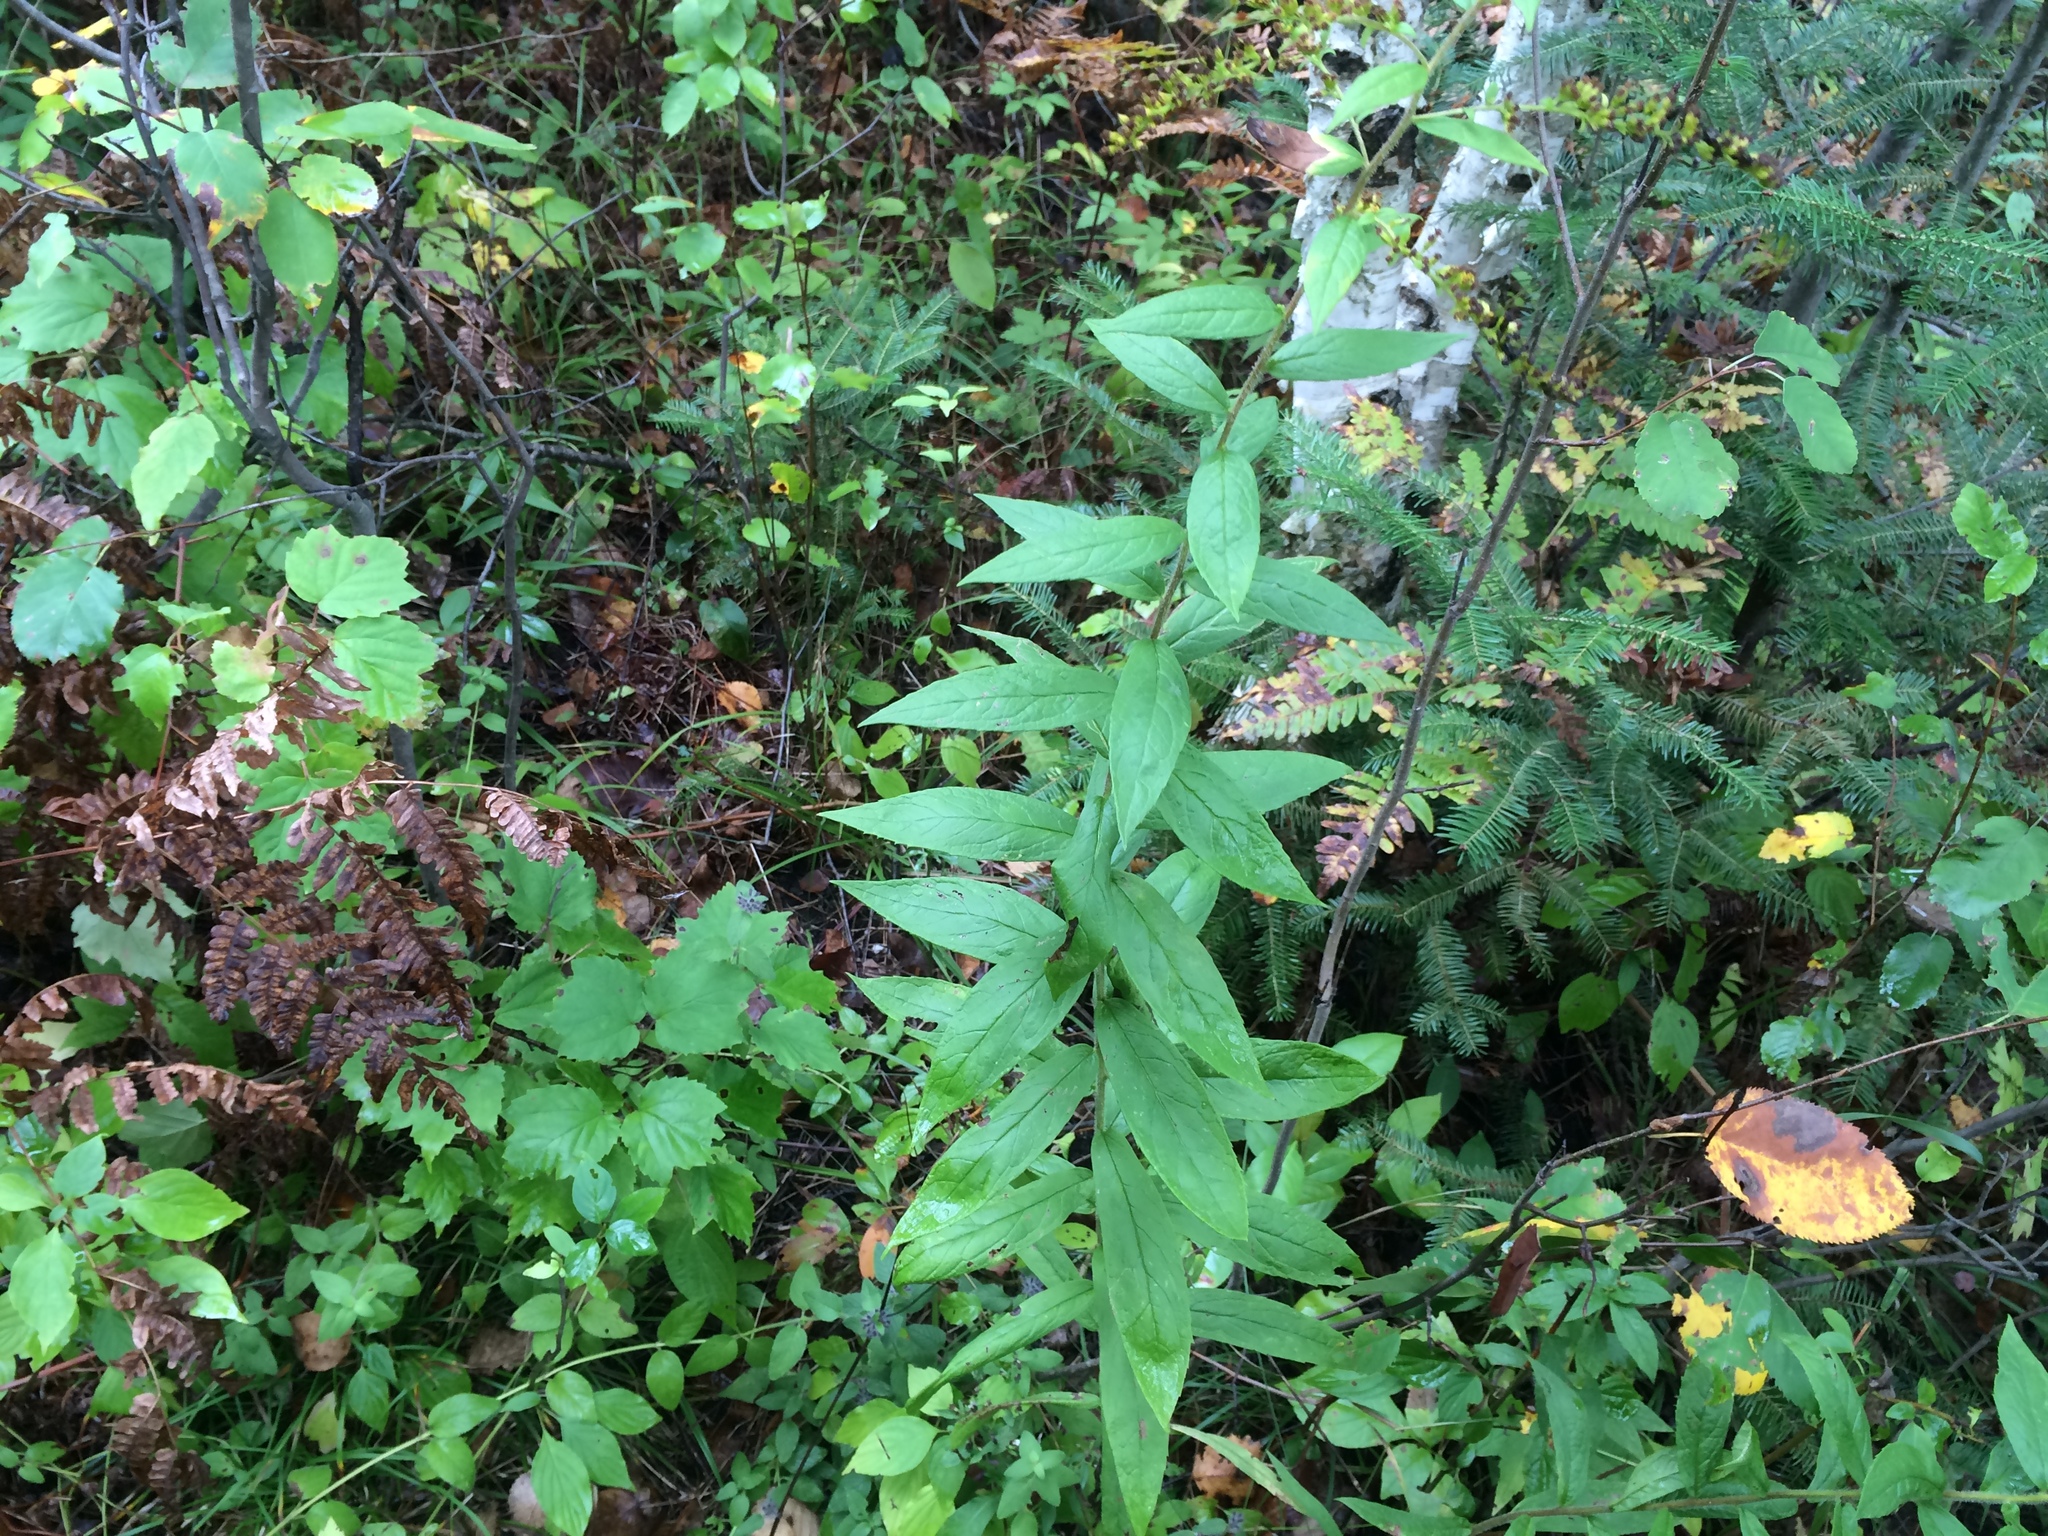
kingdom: Plantae
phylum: Tracheophyta
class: Magnoliopsida
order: Asterales
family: Asteraceae
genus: Solidago
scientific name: Solidago rugosa
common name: Rough-stemmed goldenrod
